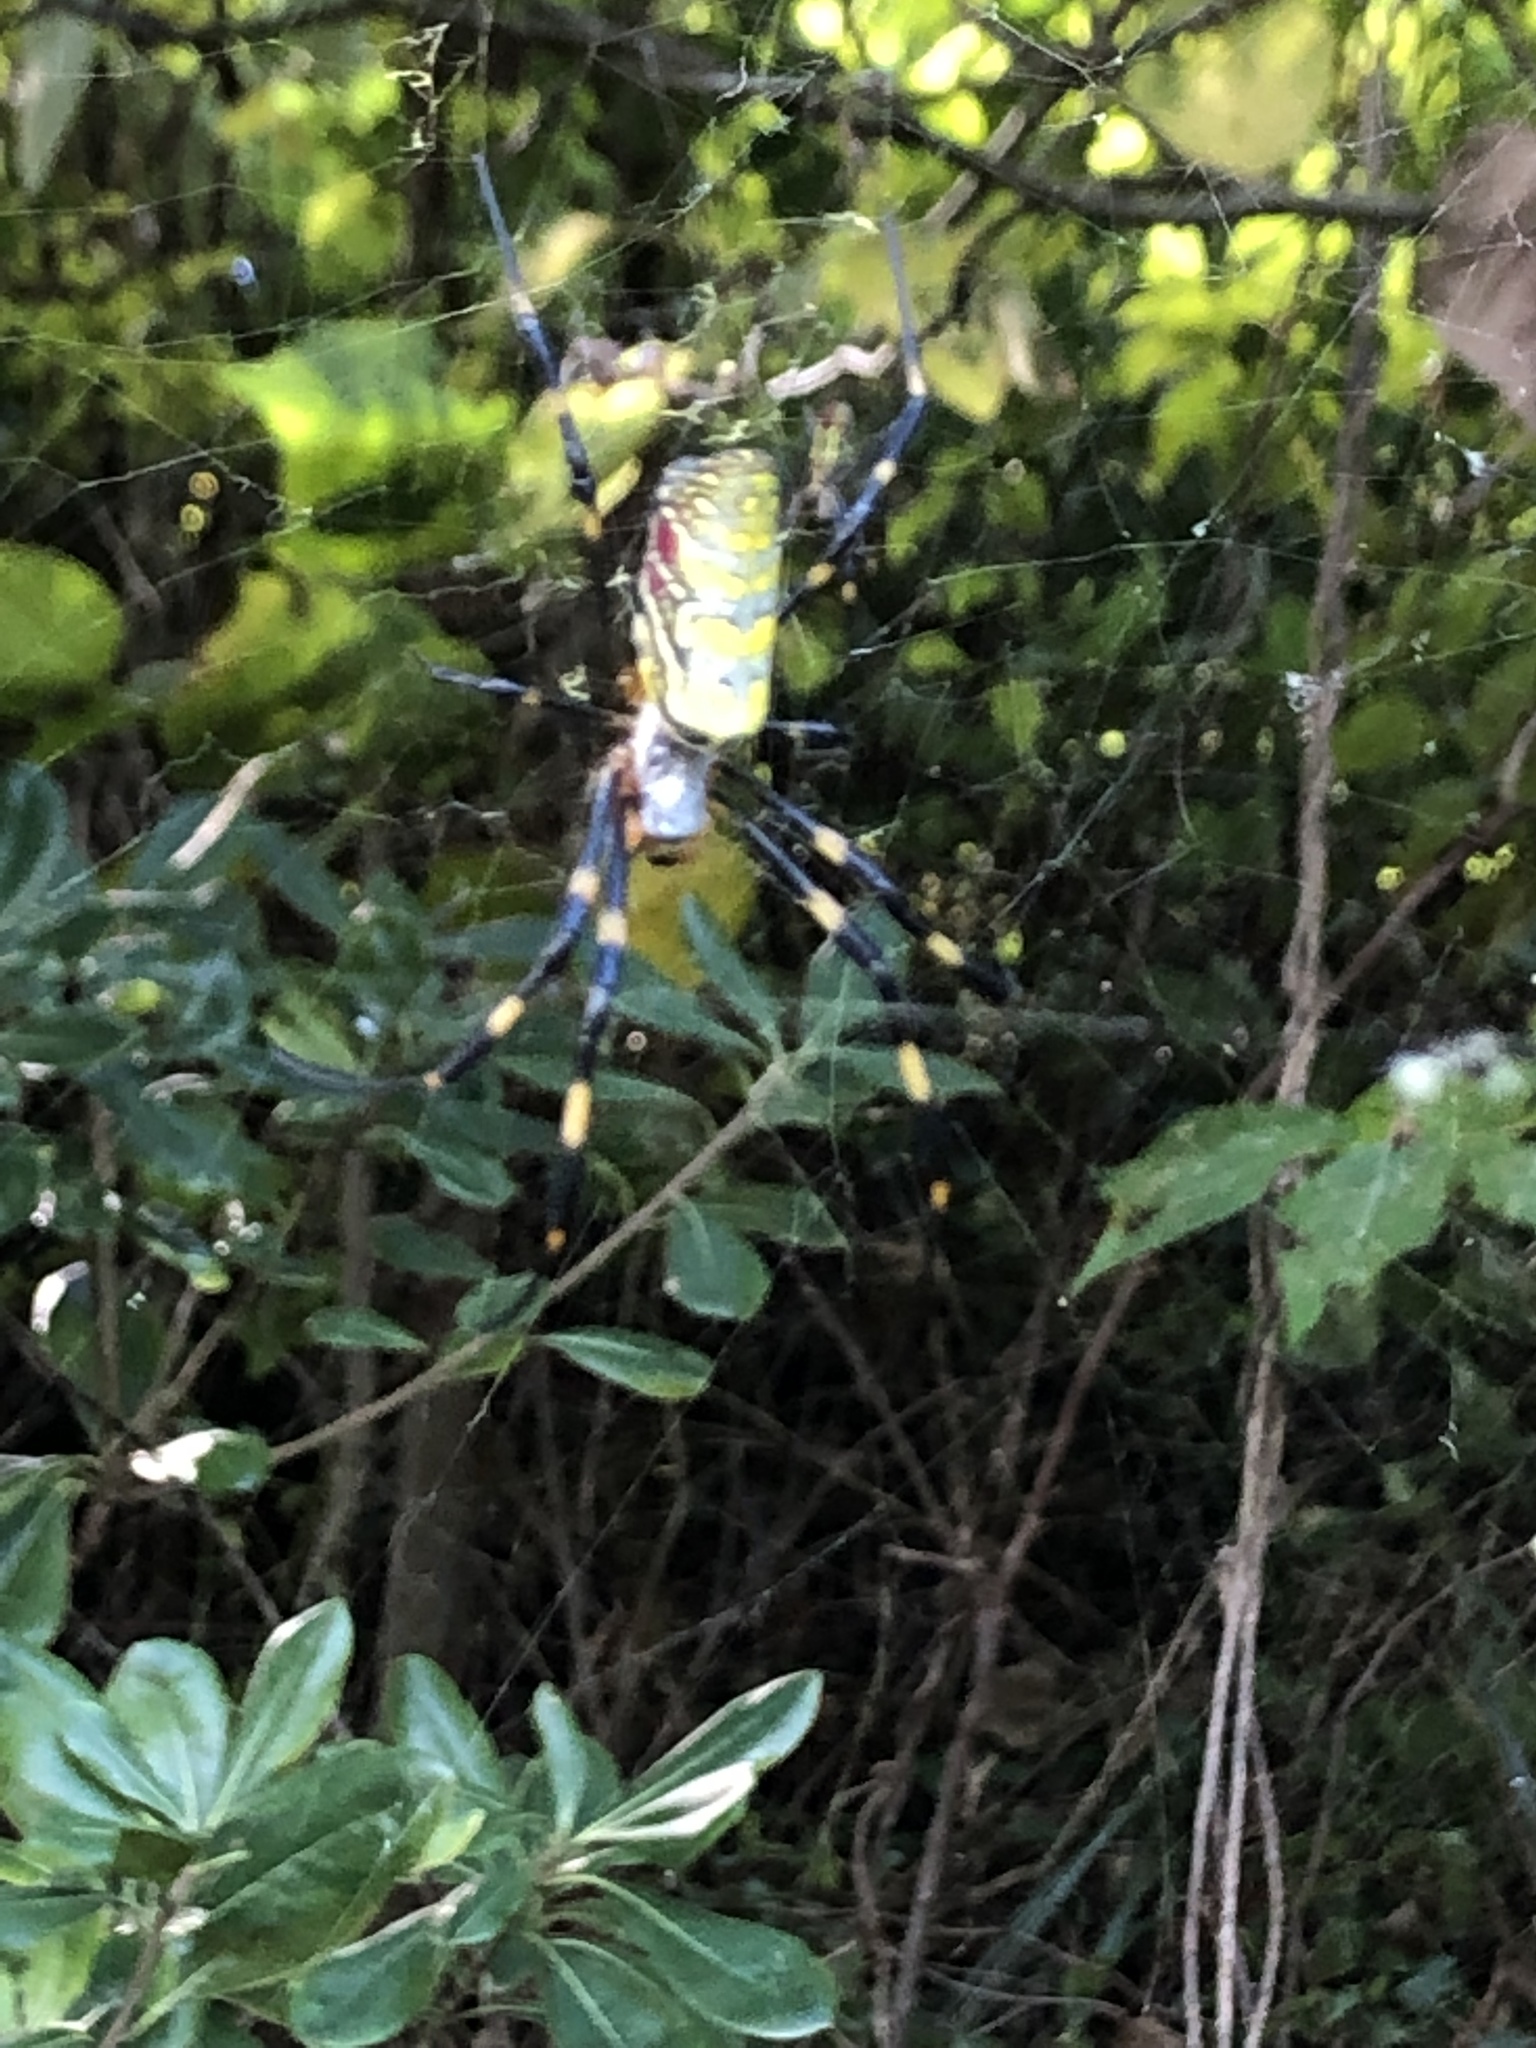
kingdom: Animalia
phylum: Arthropoda
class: Arachnida
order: Araneae
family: Araneidae
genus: Trichonephila
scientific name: Trichonephila clavata
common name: Jorō spider
